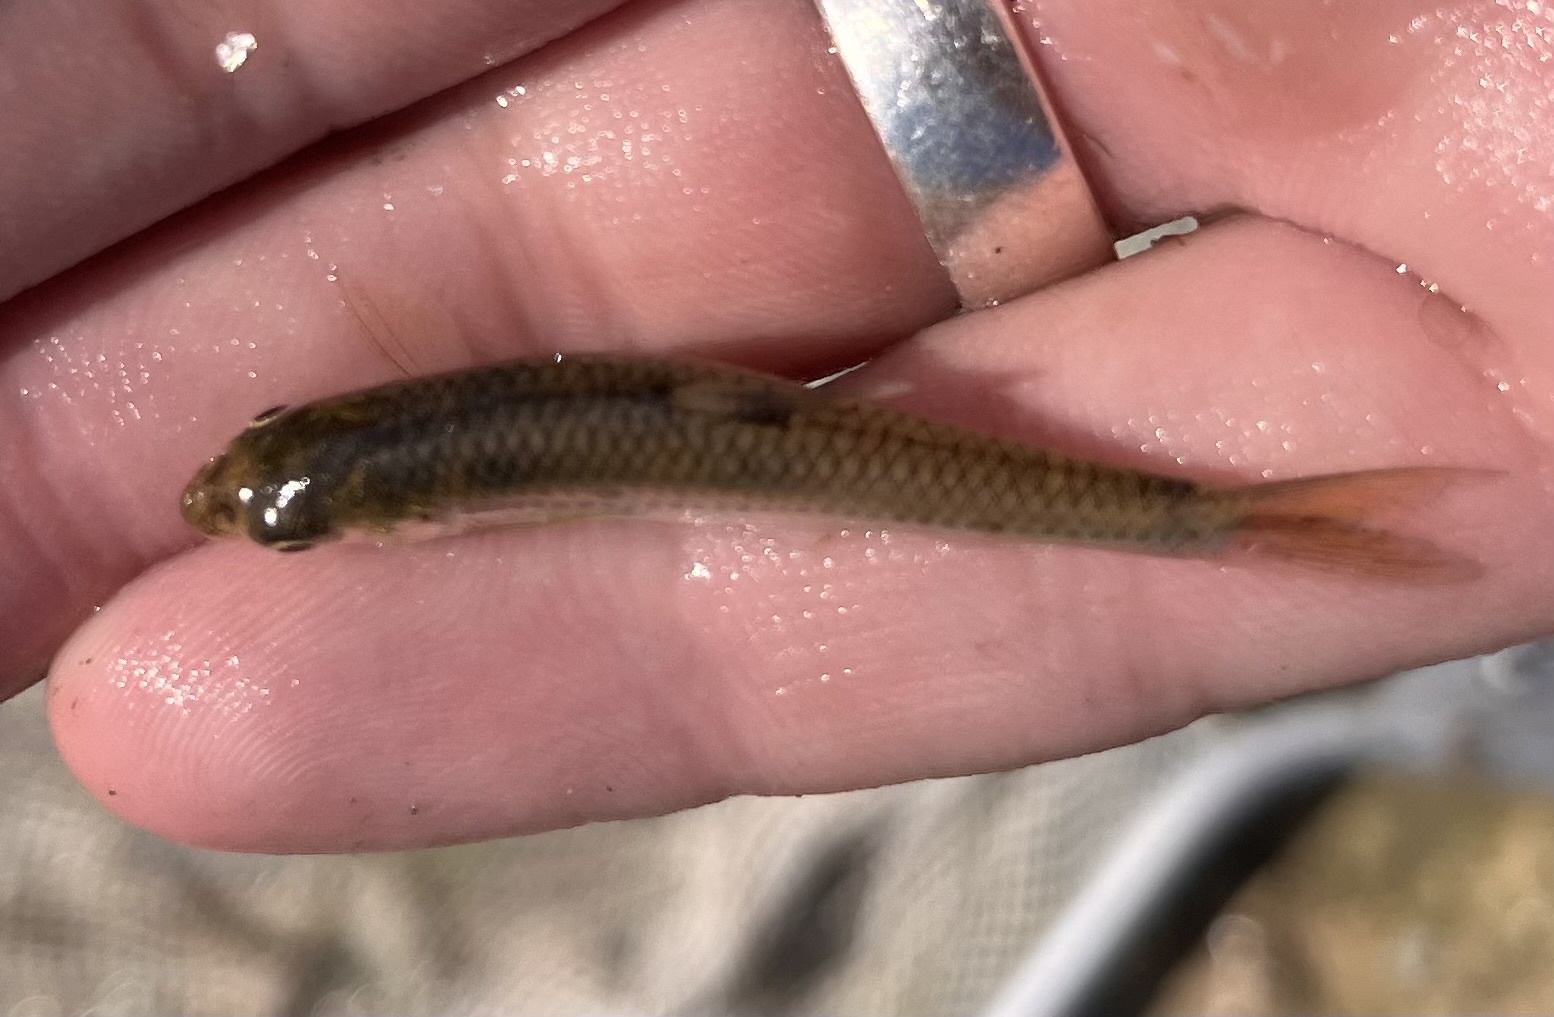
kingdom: Animalia
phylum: Chordata
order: Cypriniformes
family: Cyprinidae
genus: Notropis
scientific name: Notropis
